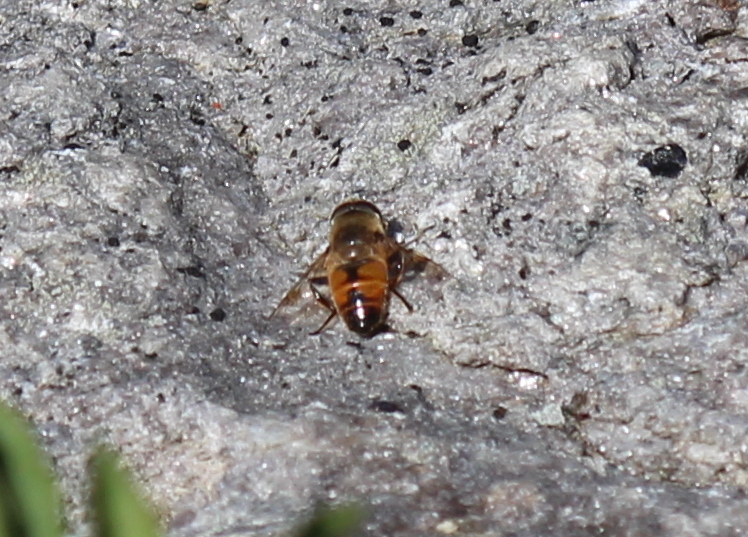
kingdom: Animalia
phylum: Arthropoda
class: Insecta
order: Diptera
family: Syrphidae
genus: Eristalis
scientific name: Eristalis tenax
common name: Drone fly
